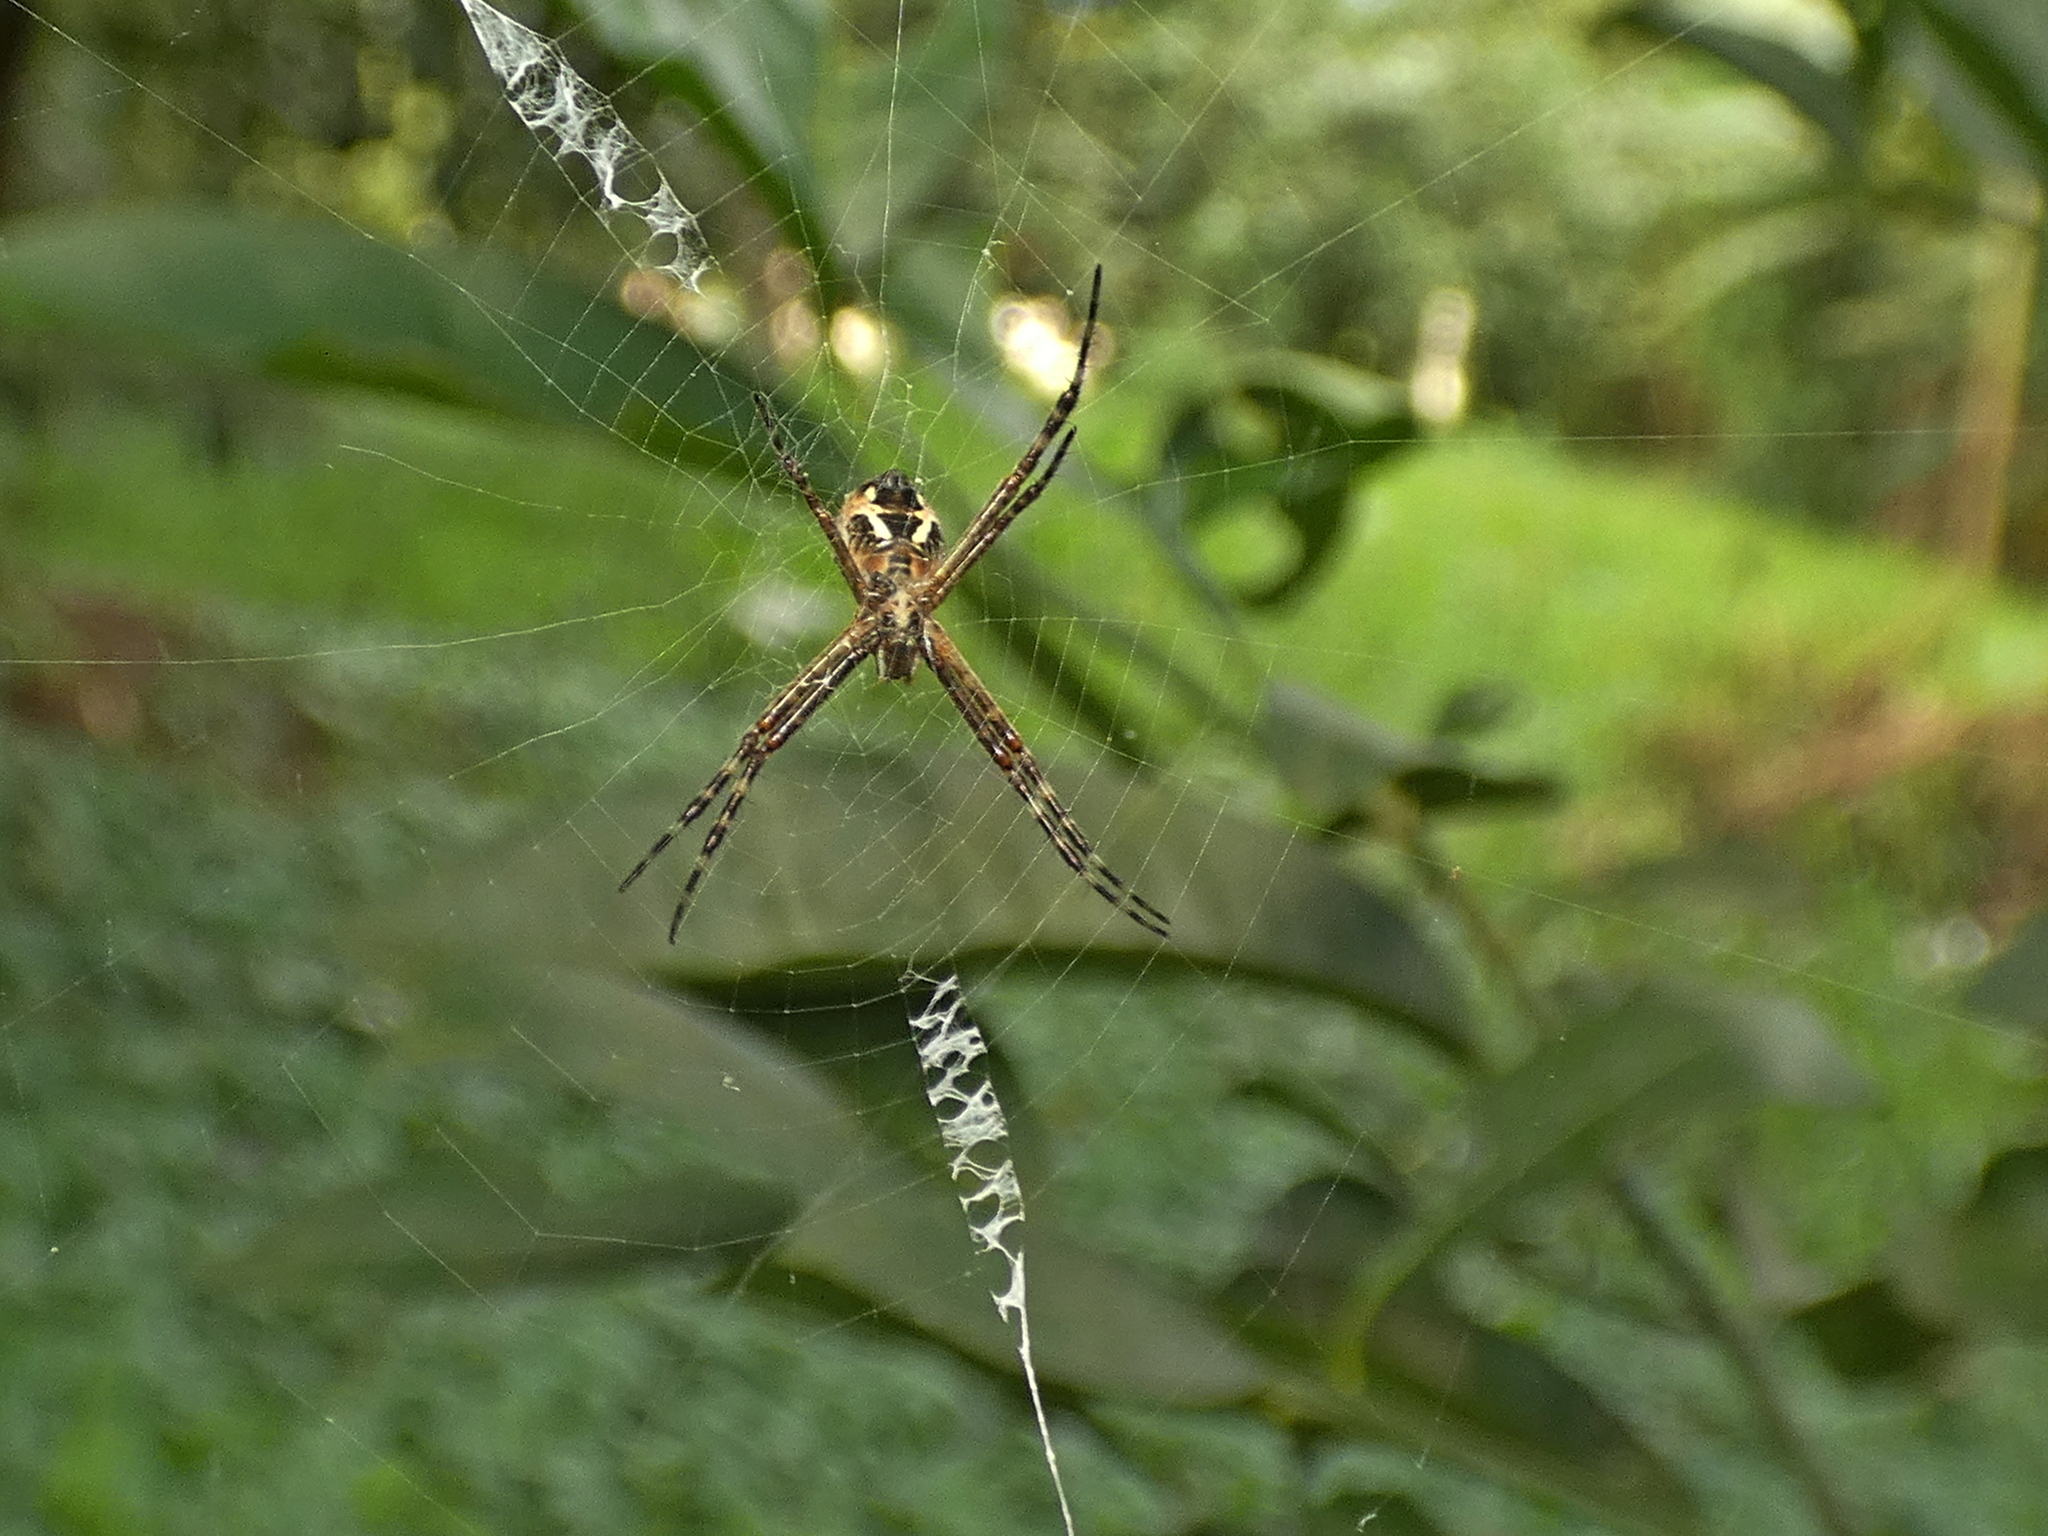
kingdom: Animalia
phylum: Arthropoda
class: Arachnida
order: Araneae
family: Araneidae
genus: Argiope
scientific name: Argiope argentata
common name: Orb weavers
